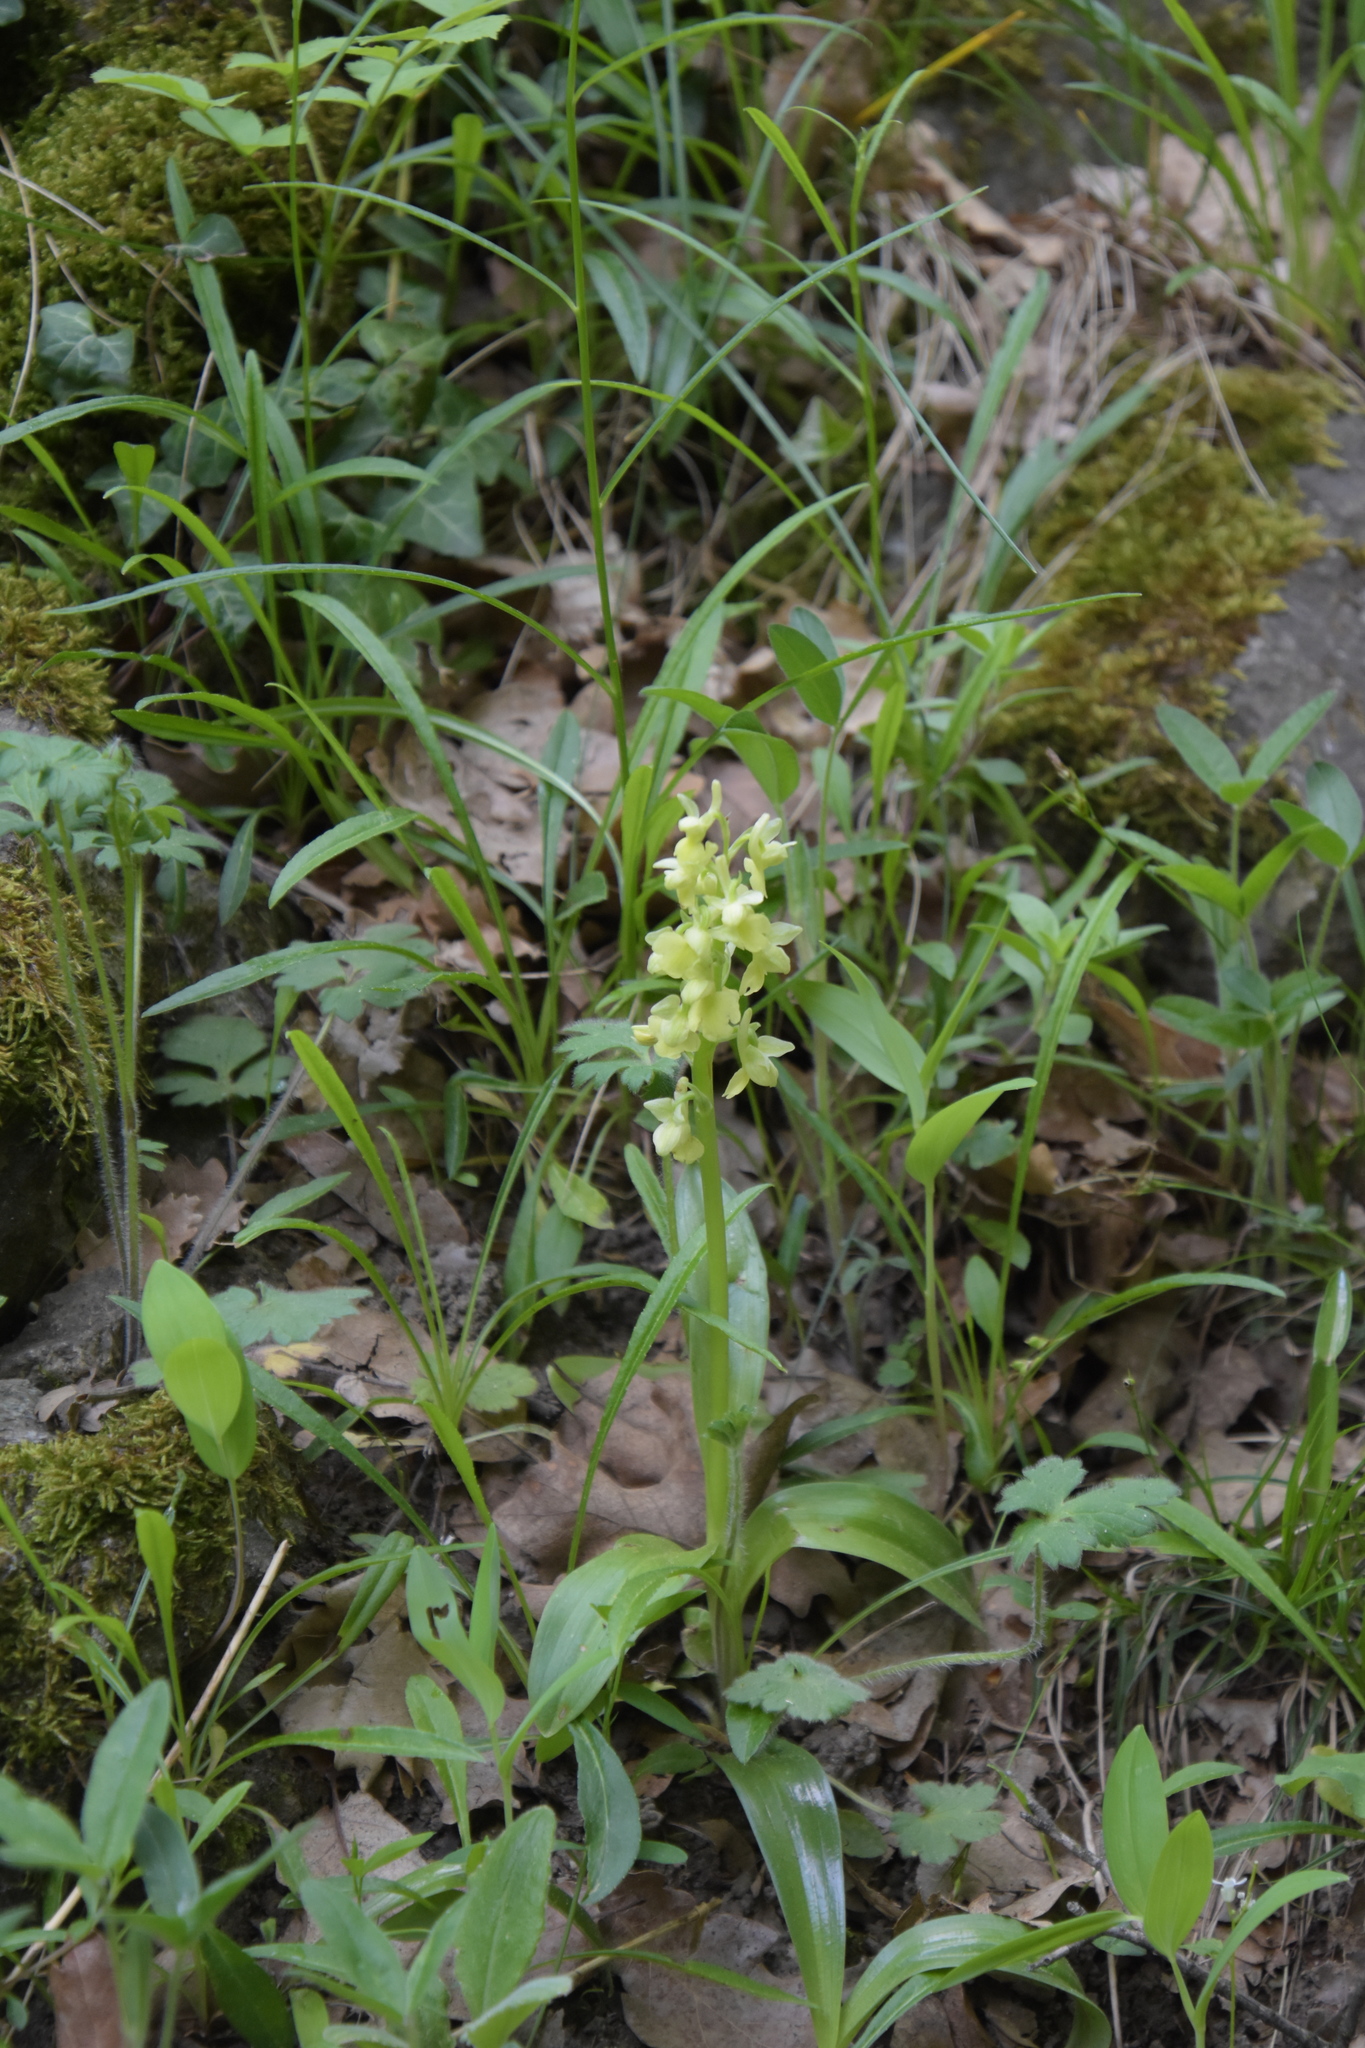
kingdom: Plantae
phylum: Tracheophyta
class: Liliopsida
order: Asparagales
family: Orchidaceae
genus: Orchis
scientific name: Orchis pallens
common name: Pale-flowered orchid
